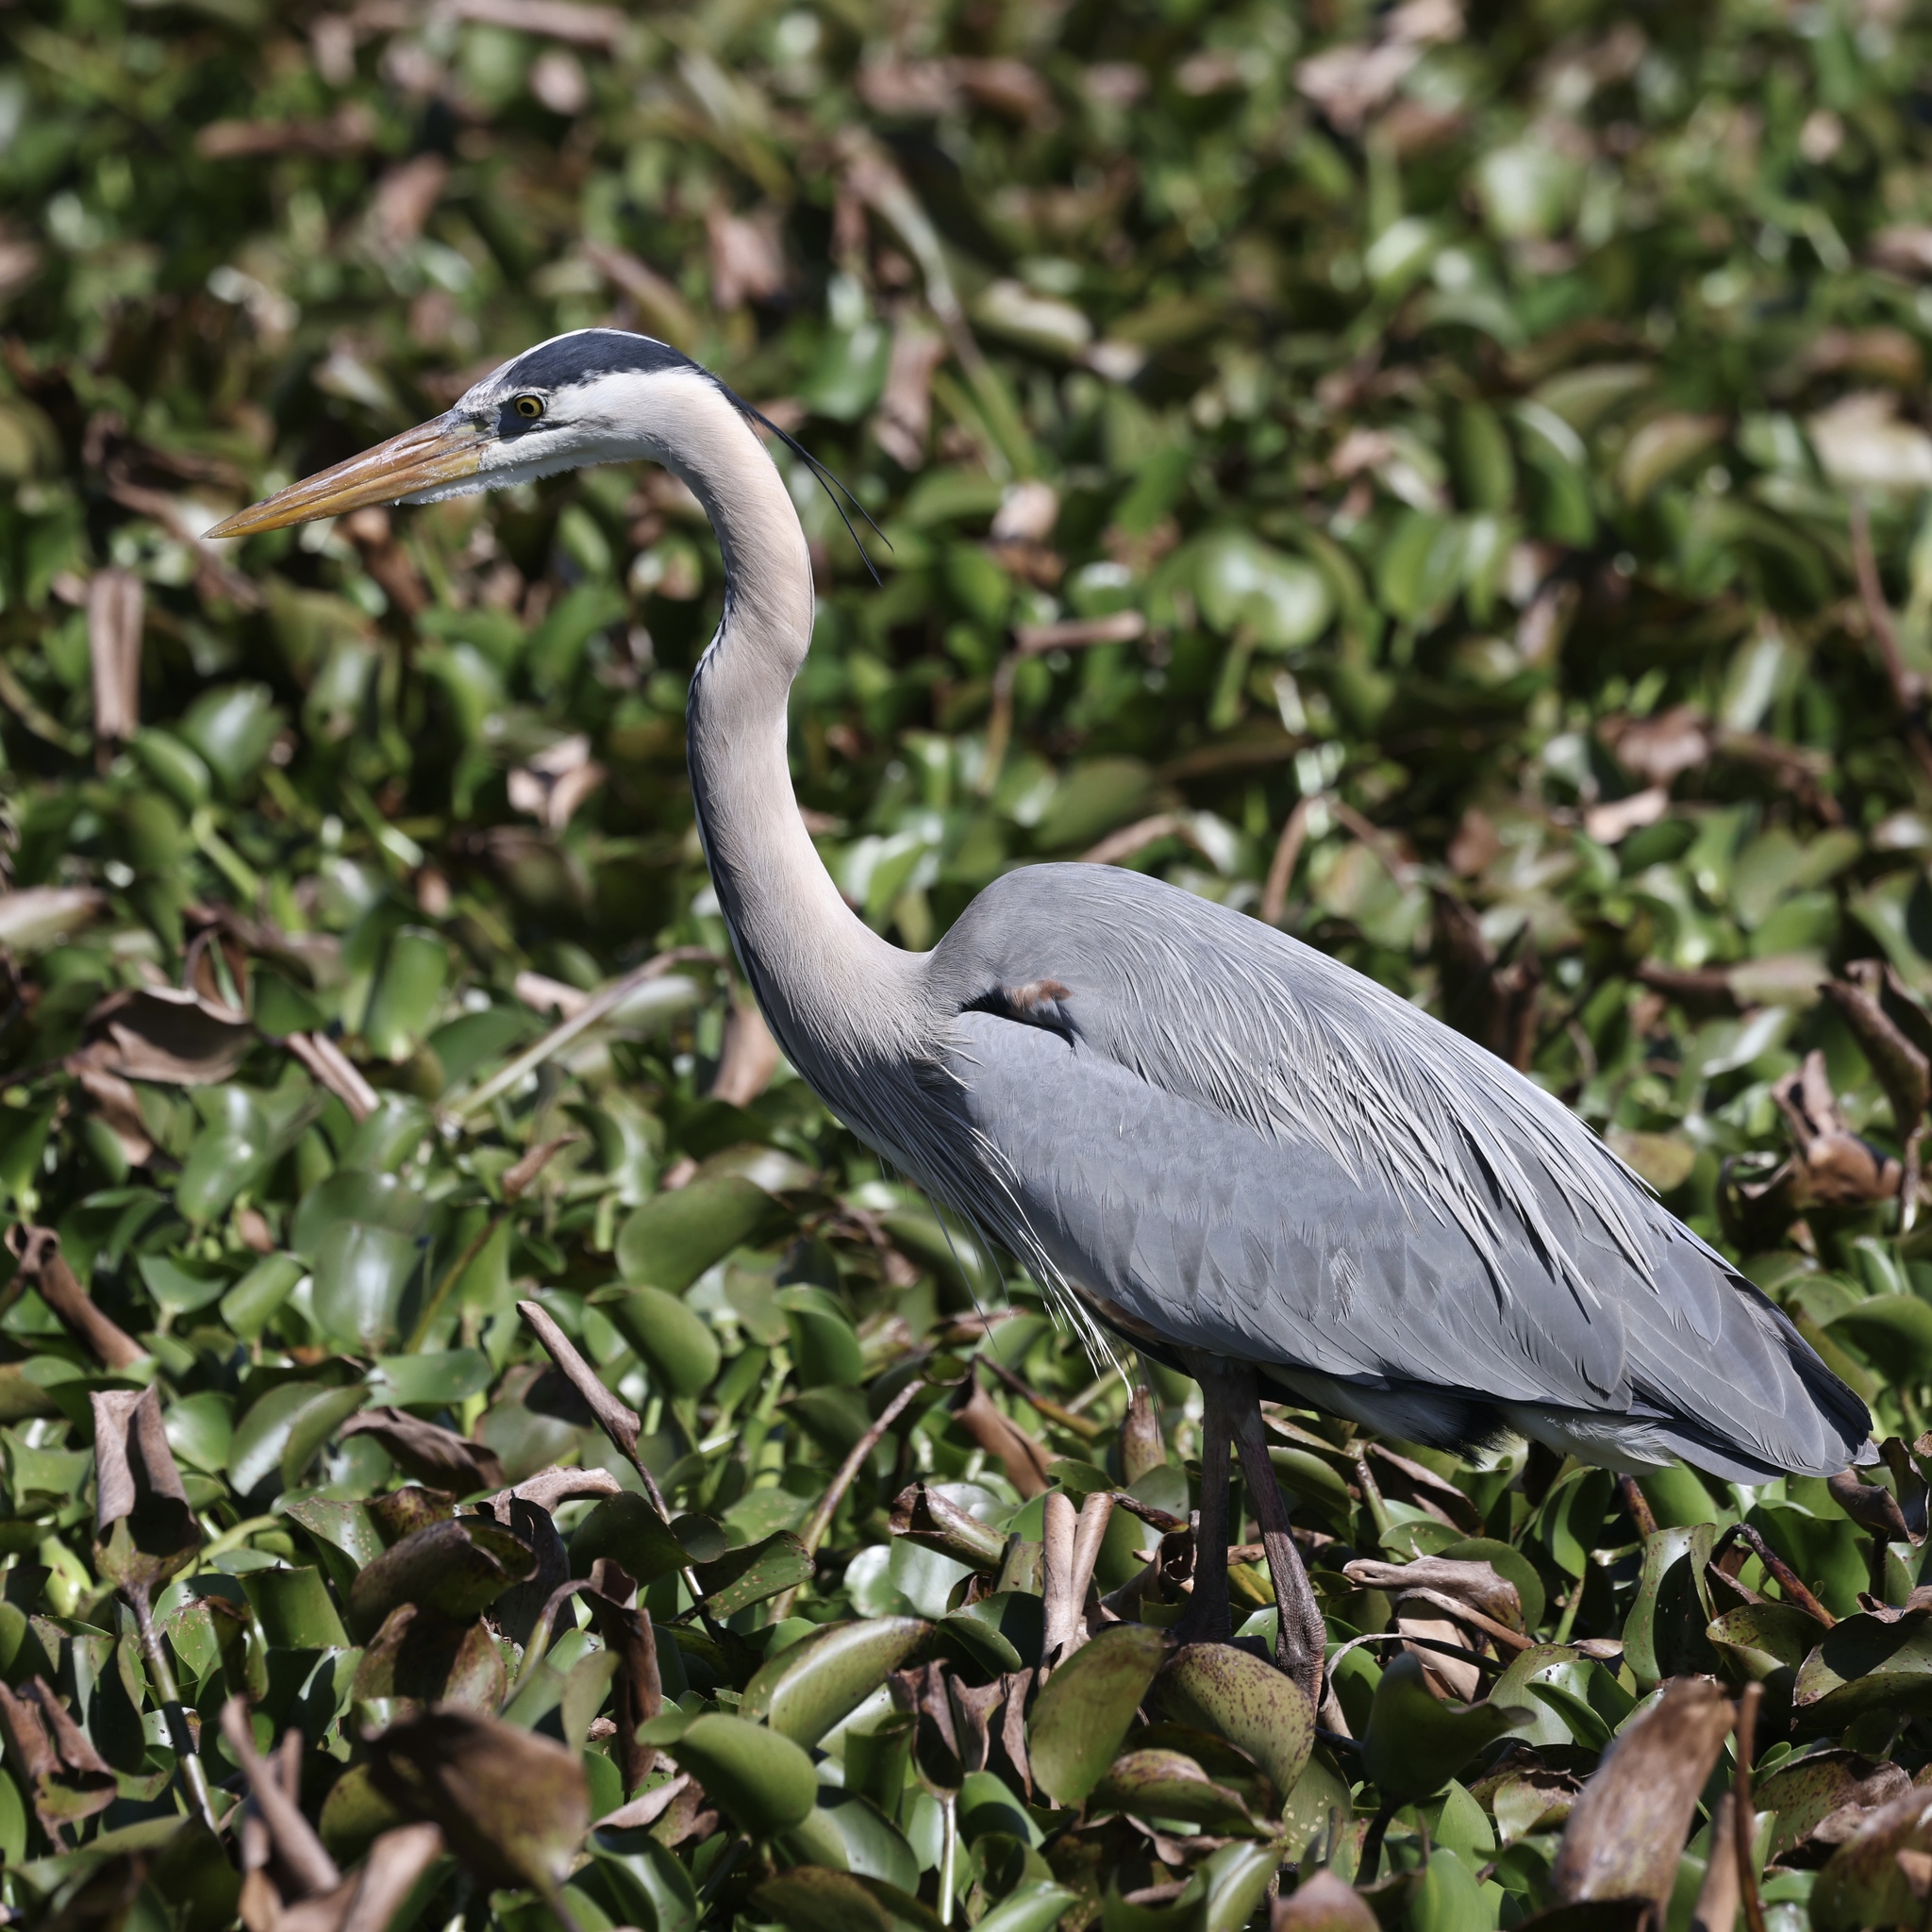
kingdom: Animalia
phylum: Chordata
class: Aves
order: Pelecaniformes
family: Ardeidae
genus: Ardea
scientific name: Ardea herodias
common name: Great blue heron
